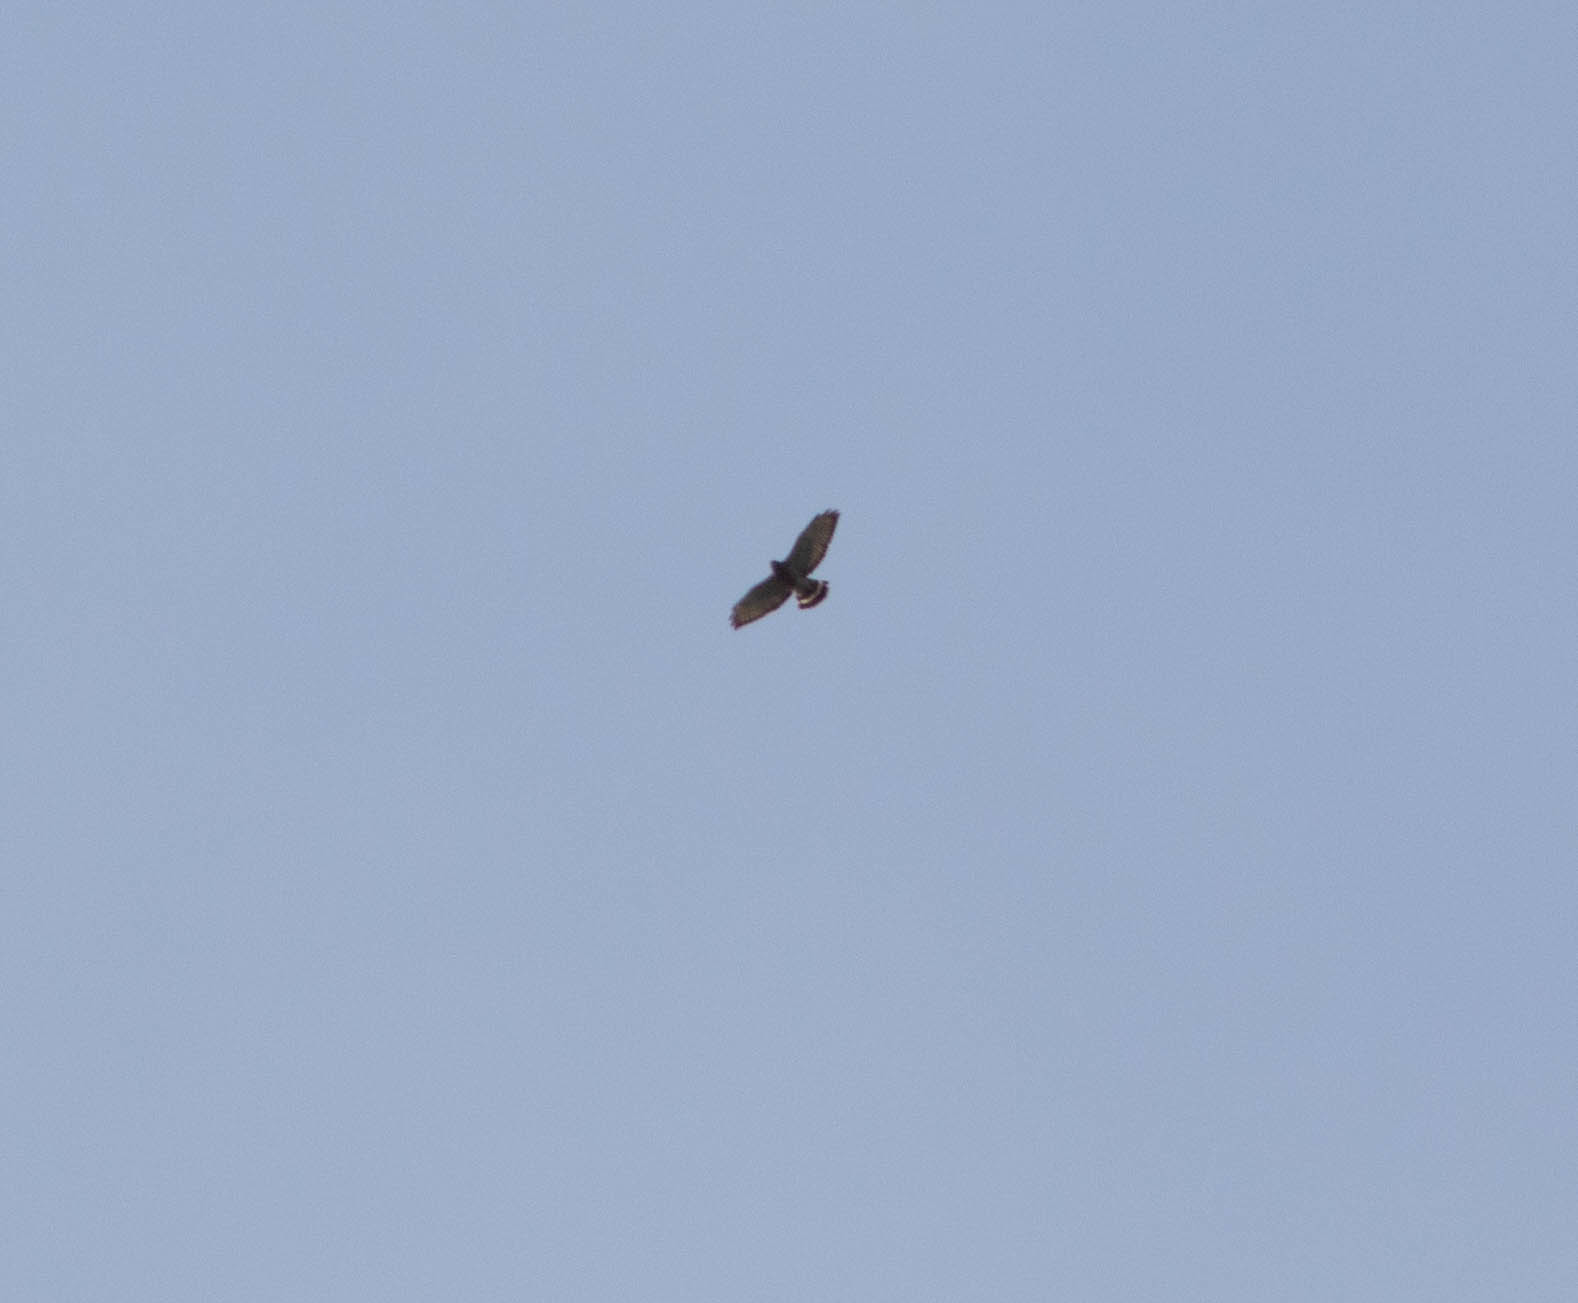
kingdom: Animalia
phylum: Chordata
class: Aves
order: Accipitriformes
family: Accipitridae
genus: Buteo
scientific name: Buteo platypterus
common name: Broad-winged hawk
